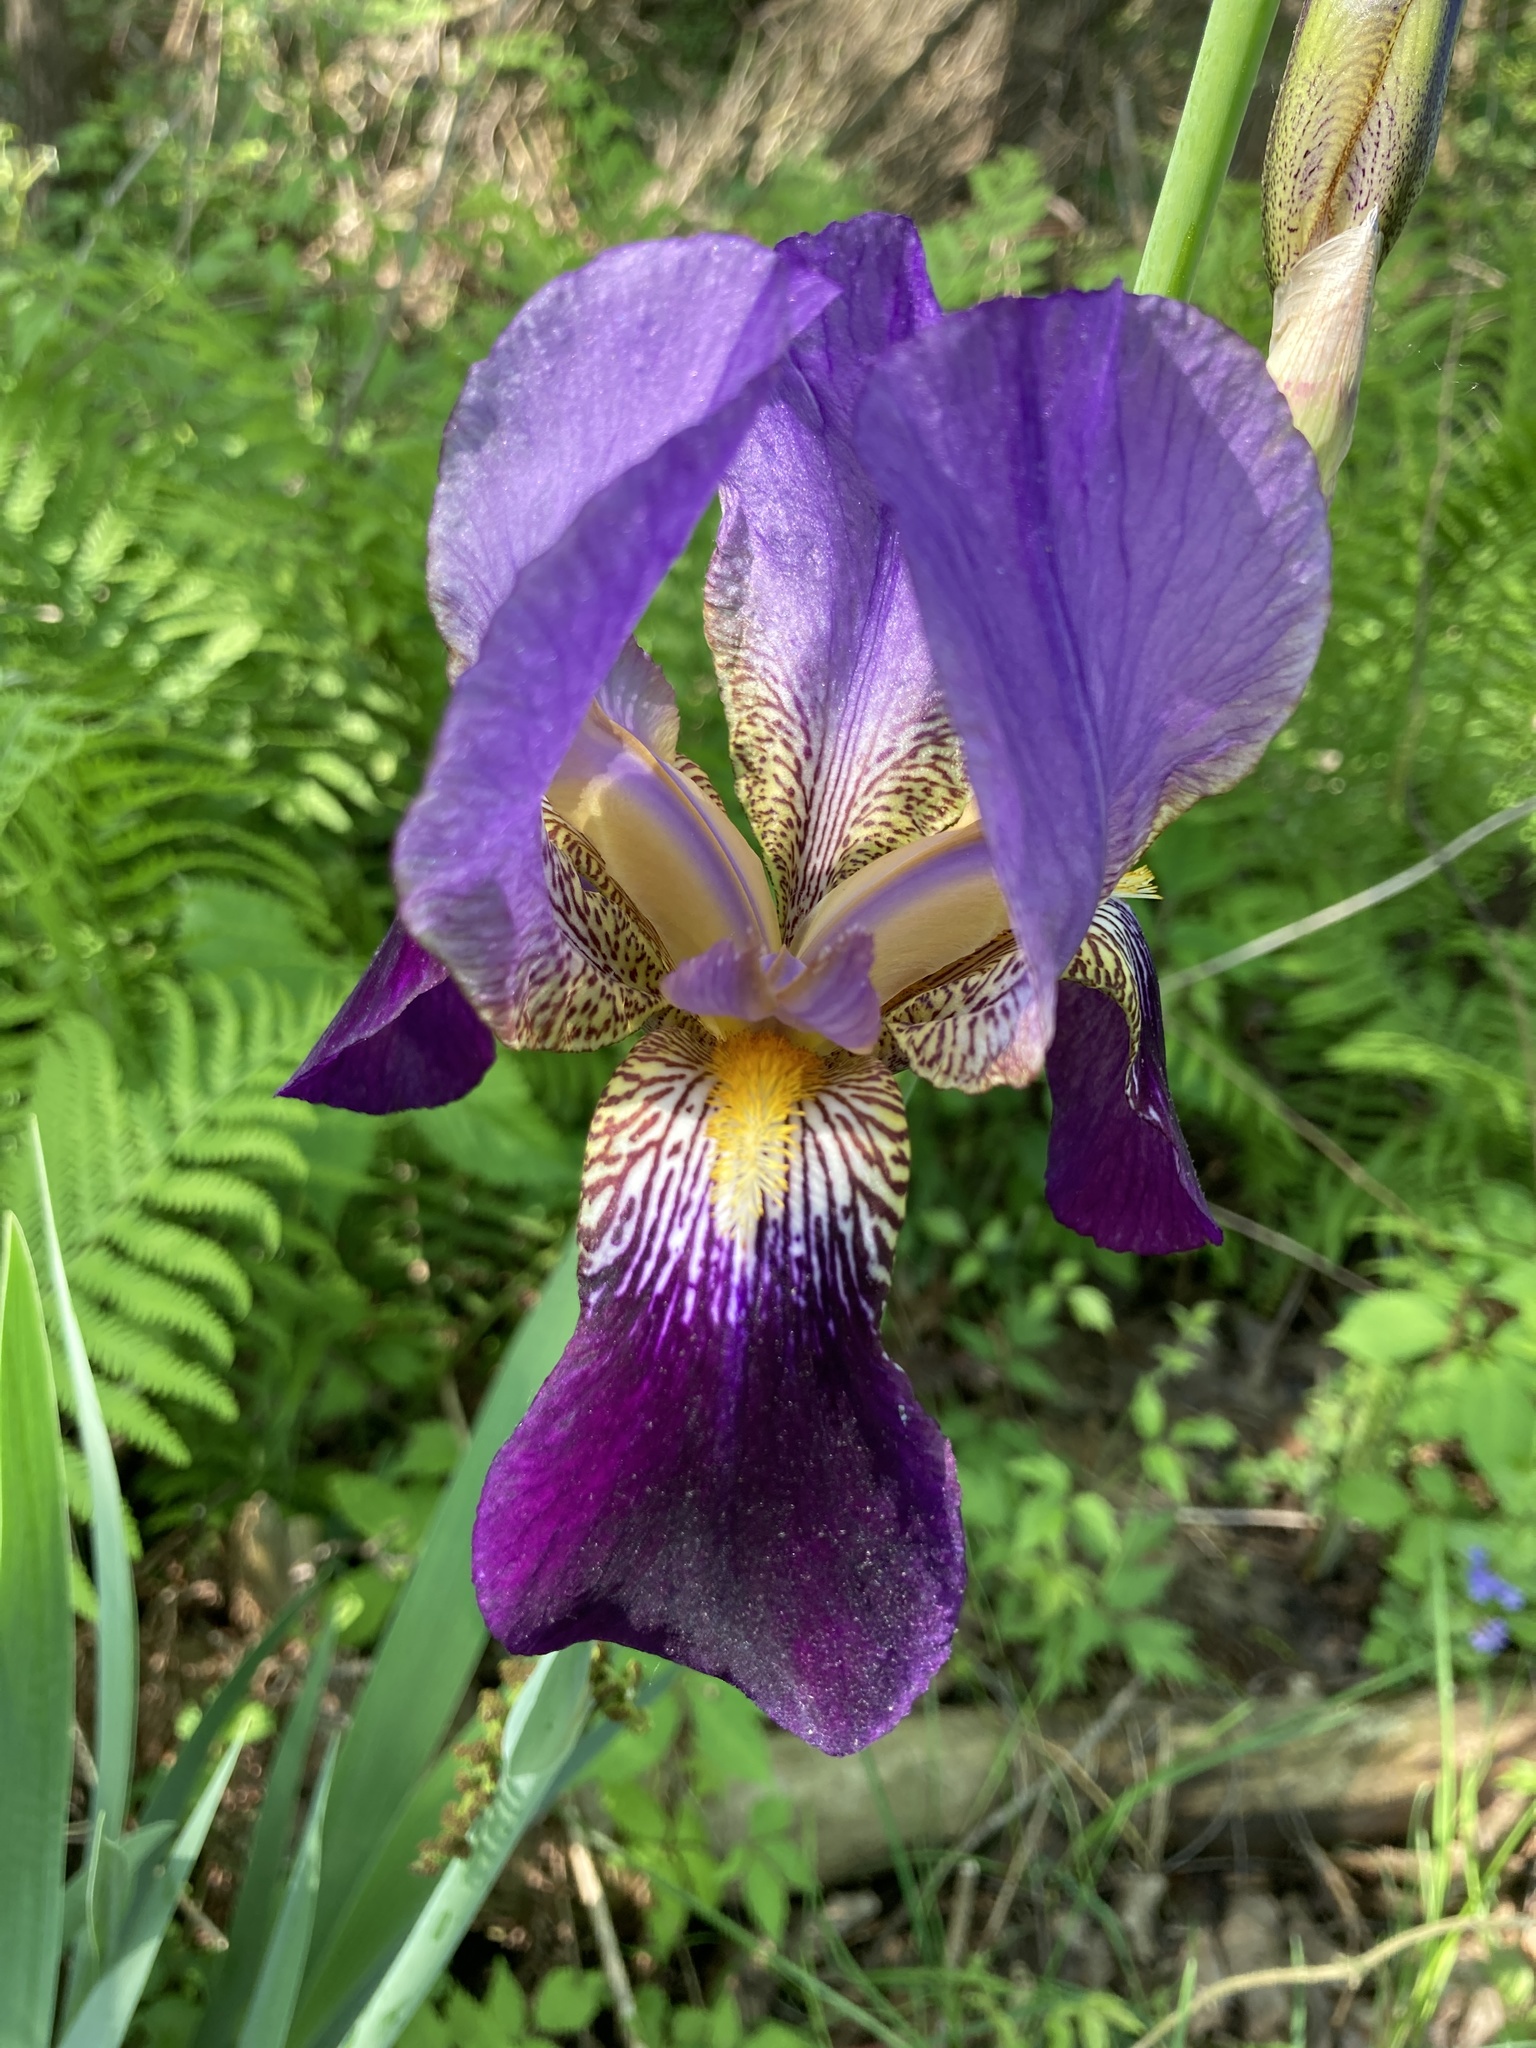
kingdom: Plantae
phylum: Tracheophyta
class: Liliopsida
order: Asparagales
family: Iridaceae
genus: Iris
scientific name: Iris hybrida
